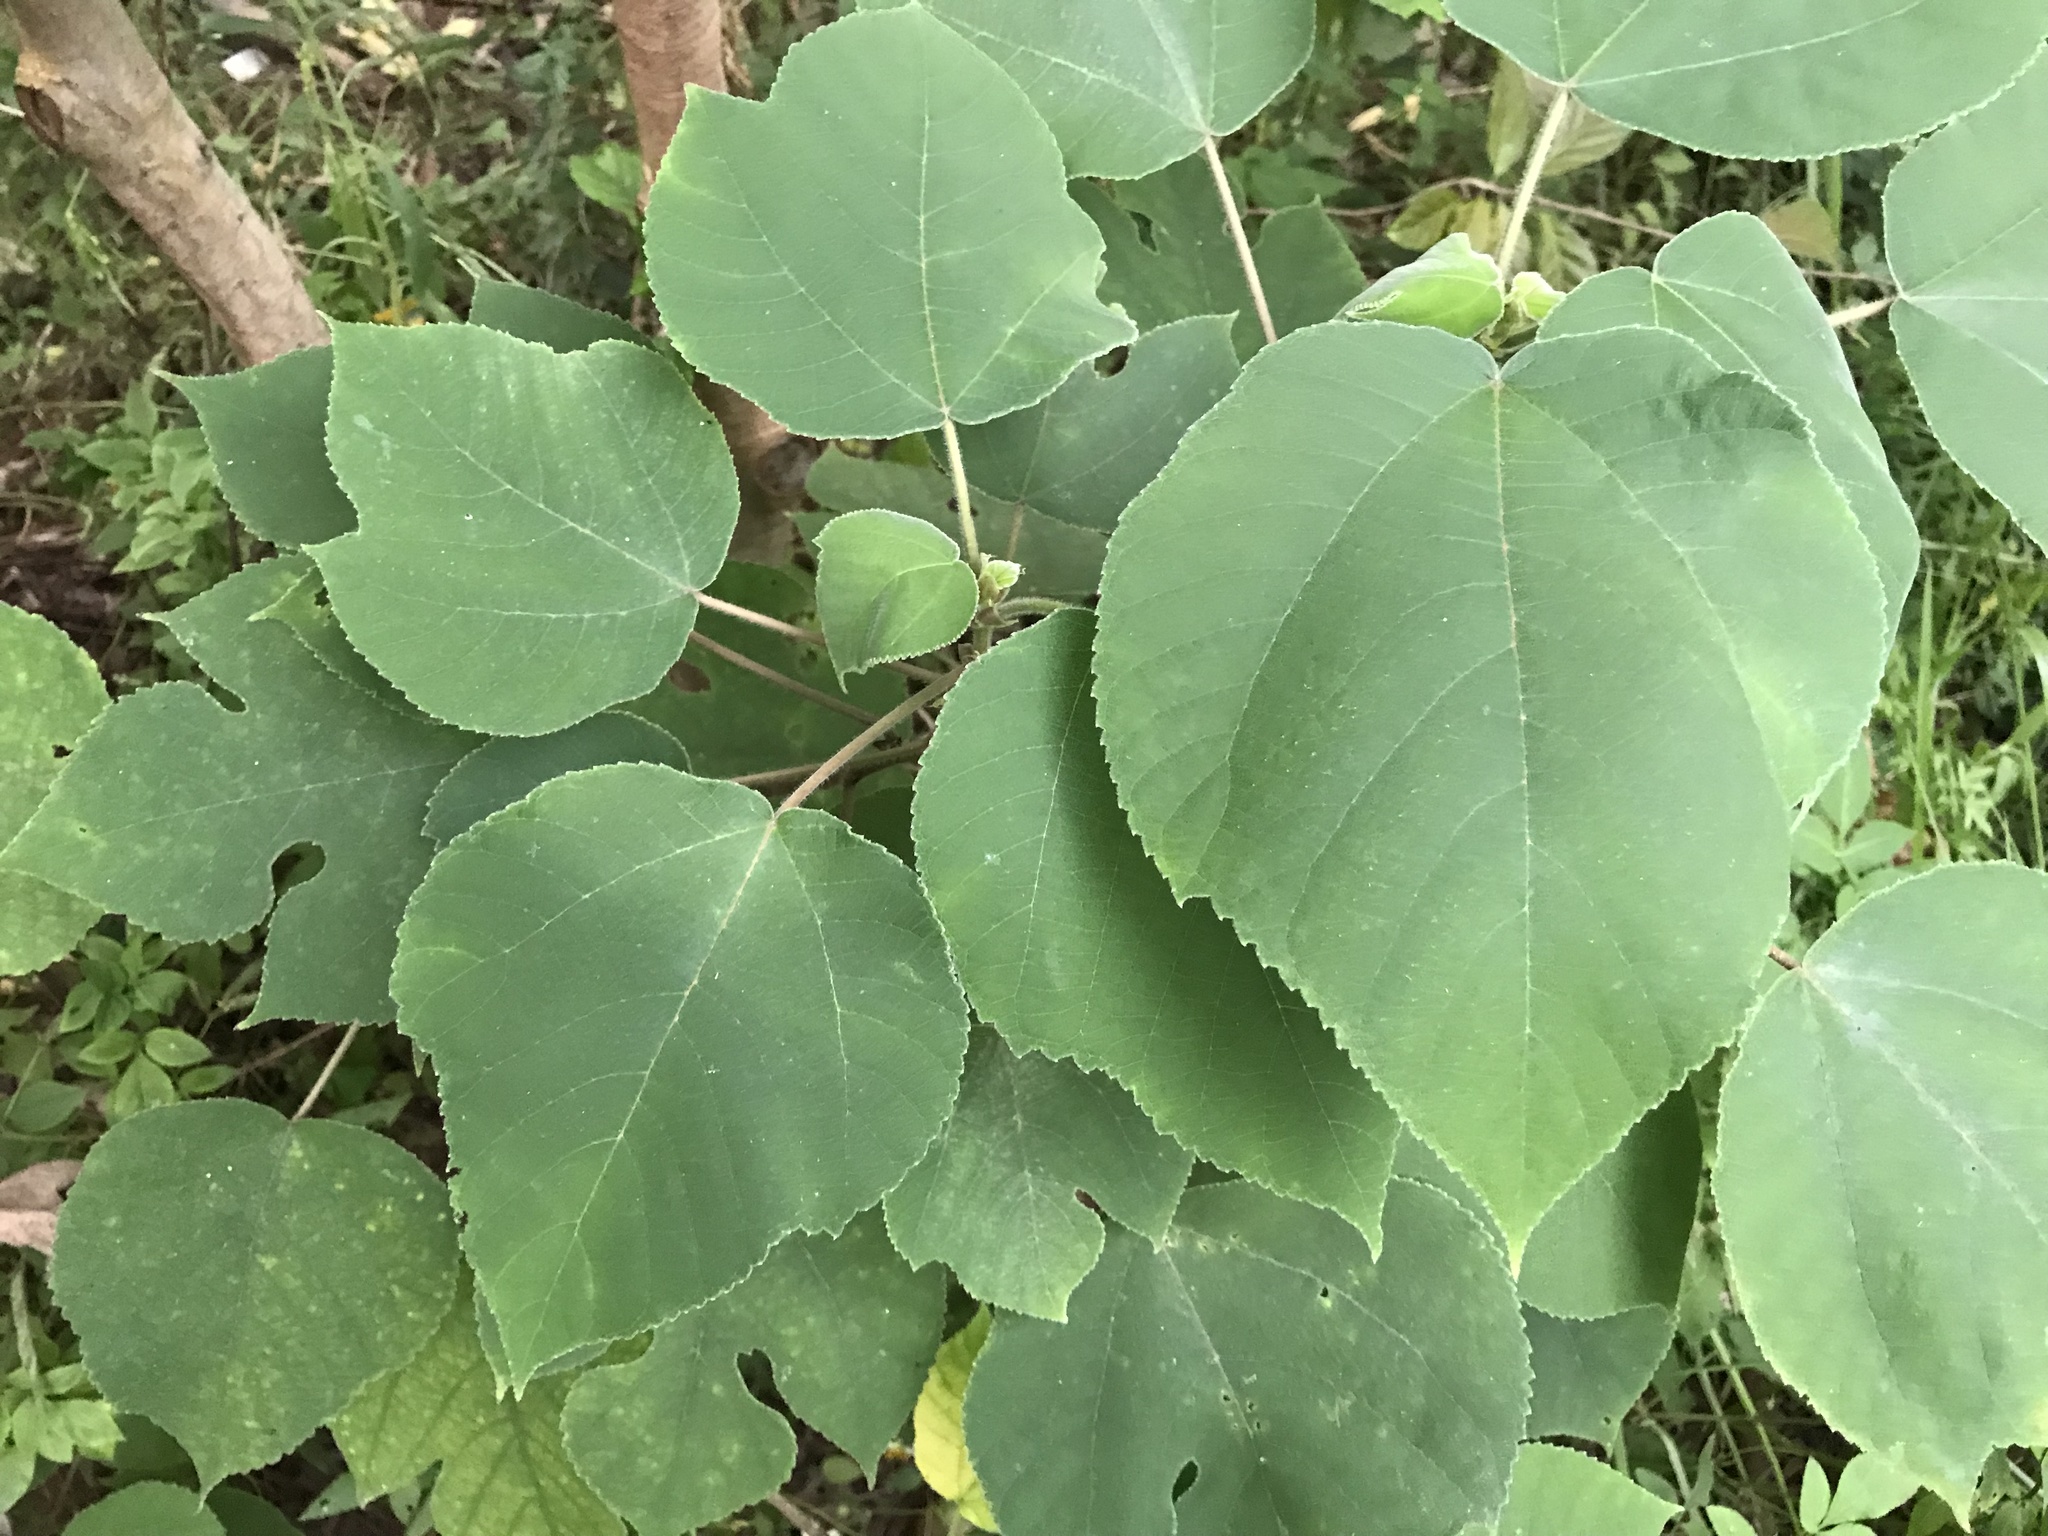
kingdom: Plantae
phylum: Tracheophyta
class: Magnoliopsida
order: Rosales
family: Moraceae
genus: Broussonetia
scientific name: Broussonetia papyrifera
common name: Paper mulberry
